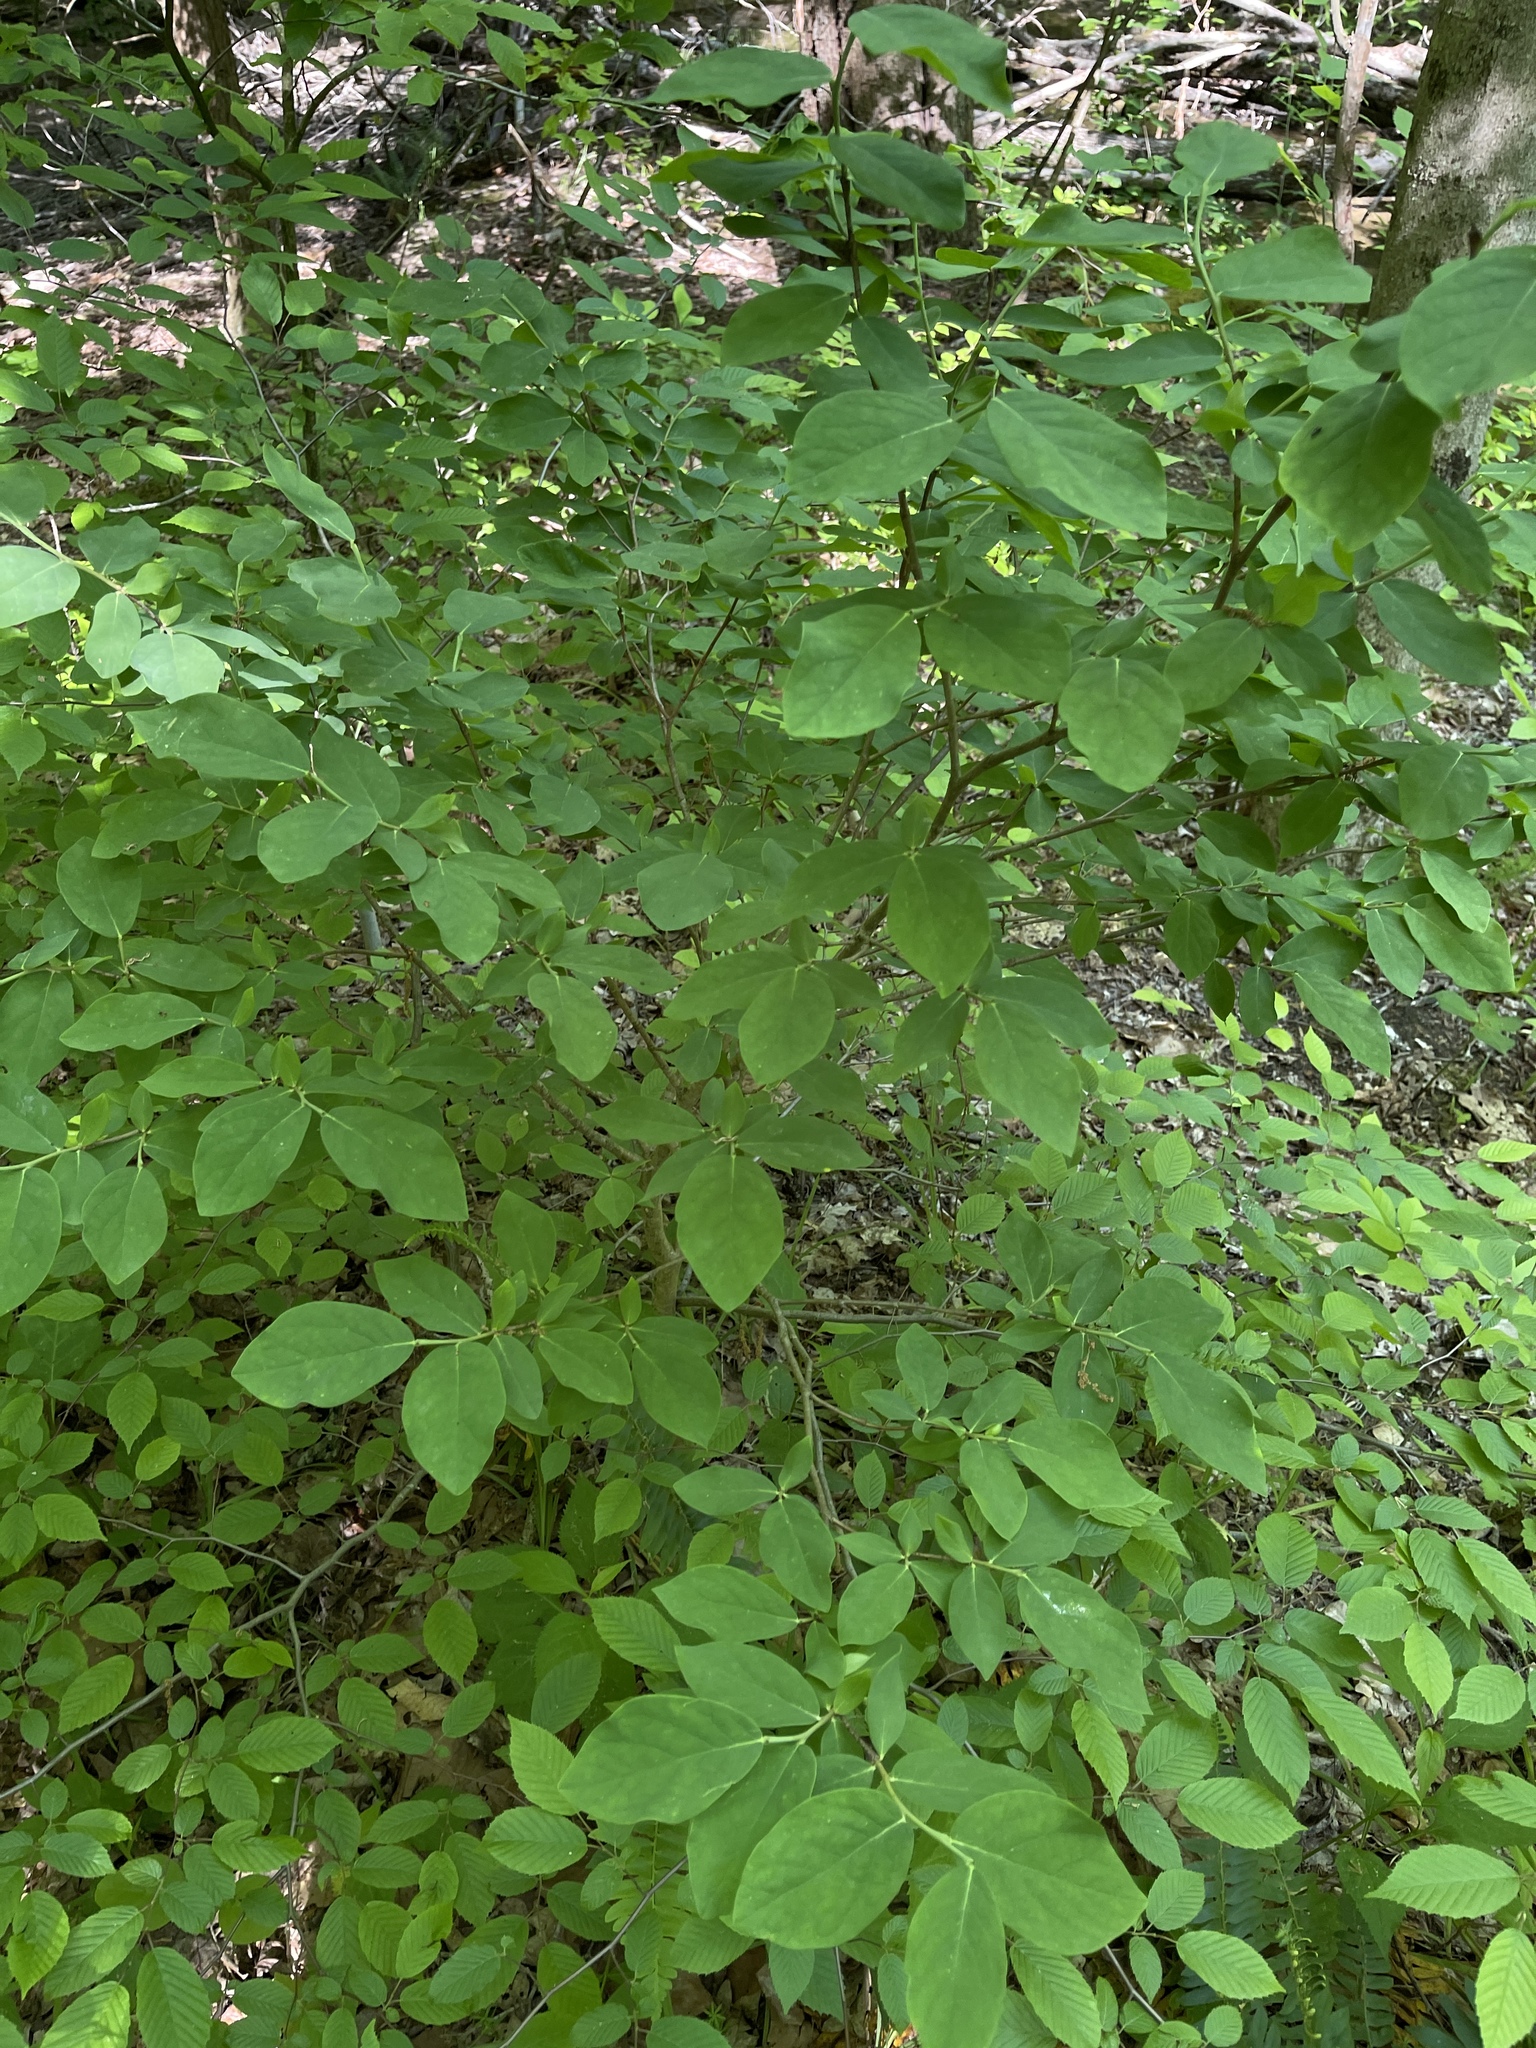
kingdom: Plantae
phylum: Tracheophyta
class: Magnoliopsida
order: Malvales
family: Thymelaeaceae
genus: Dirca
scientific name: Dirca palustris
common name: Leatherwood
